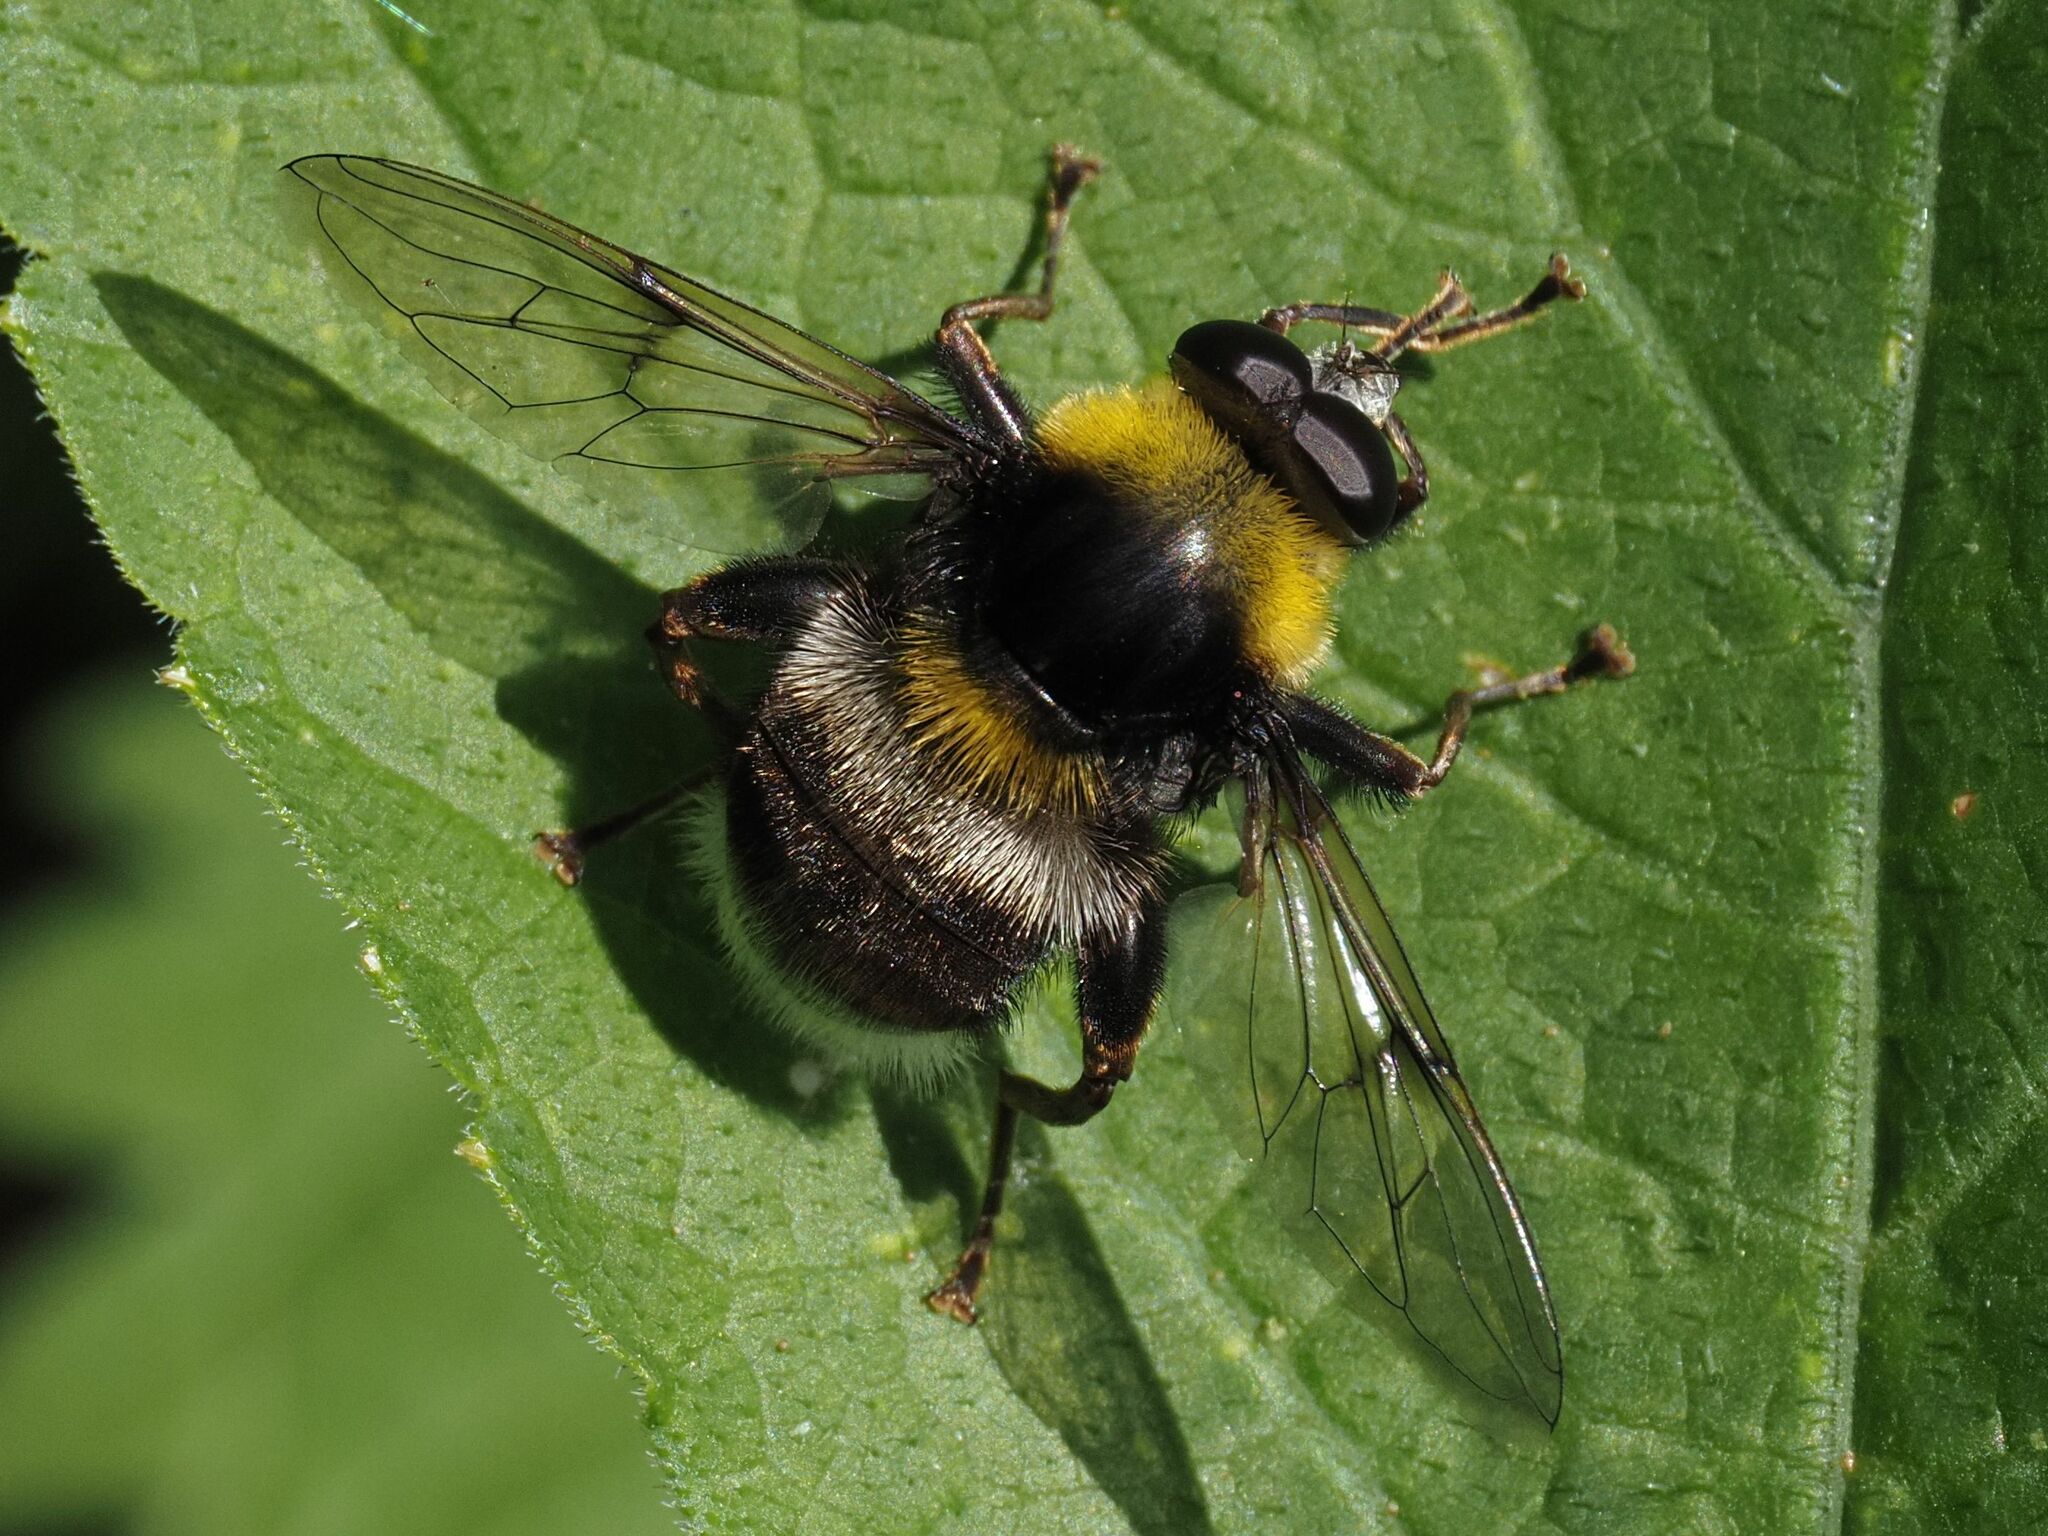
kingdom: Animalia
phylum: Arthropoda
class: Insecta
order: Diptera
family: Syrphidae
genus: Sericomyia
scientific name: Sericomyia bombiformis
